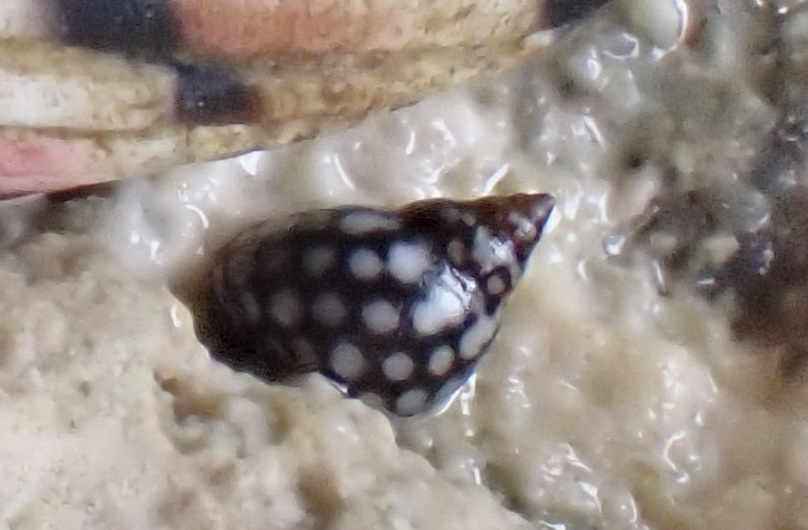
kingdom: Animalia
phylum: Mollusca
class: Gastropoda
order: Littorinimorpha
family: Littorinidae
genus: Echinolittorina
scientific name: Echinolittorina meleagris
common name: White-spotted periwinkle
